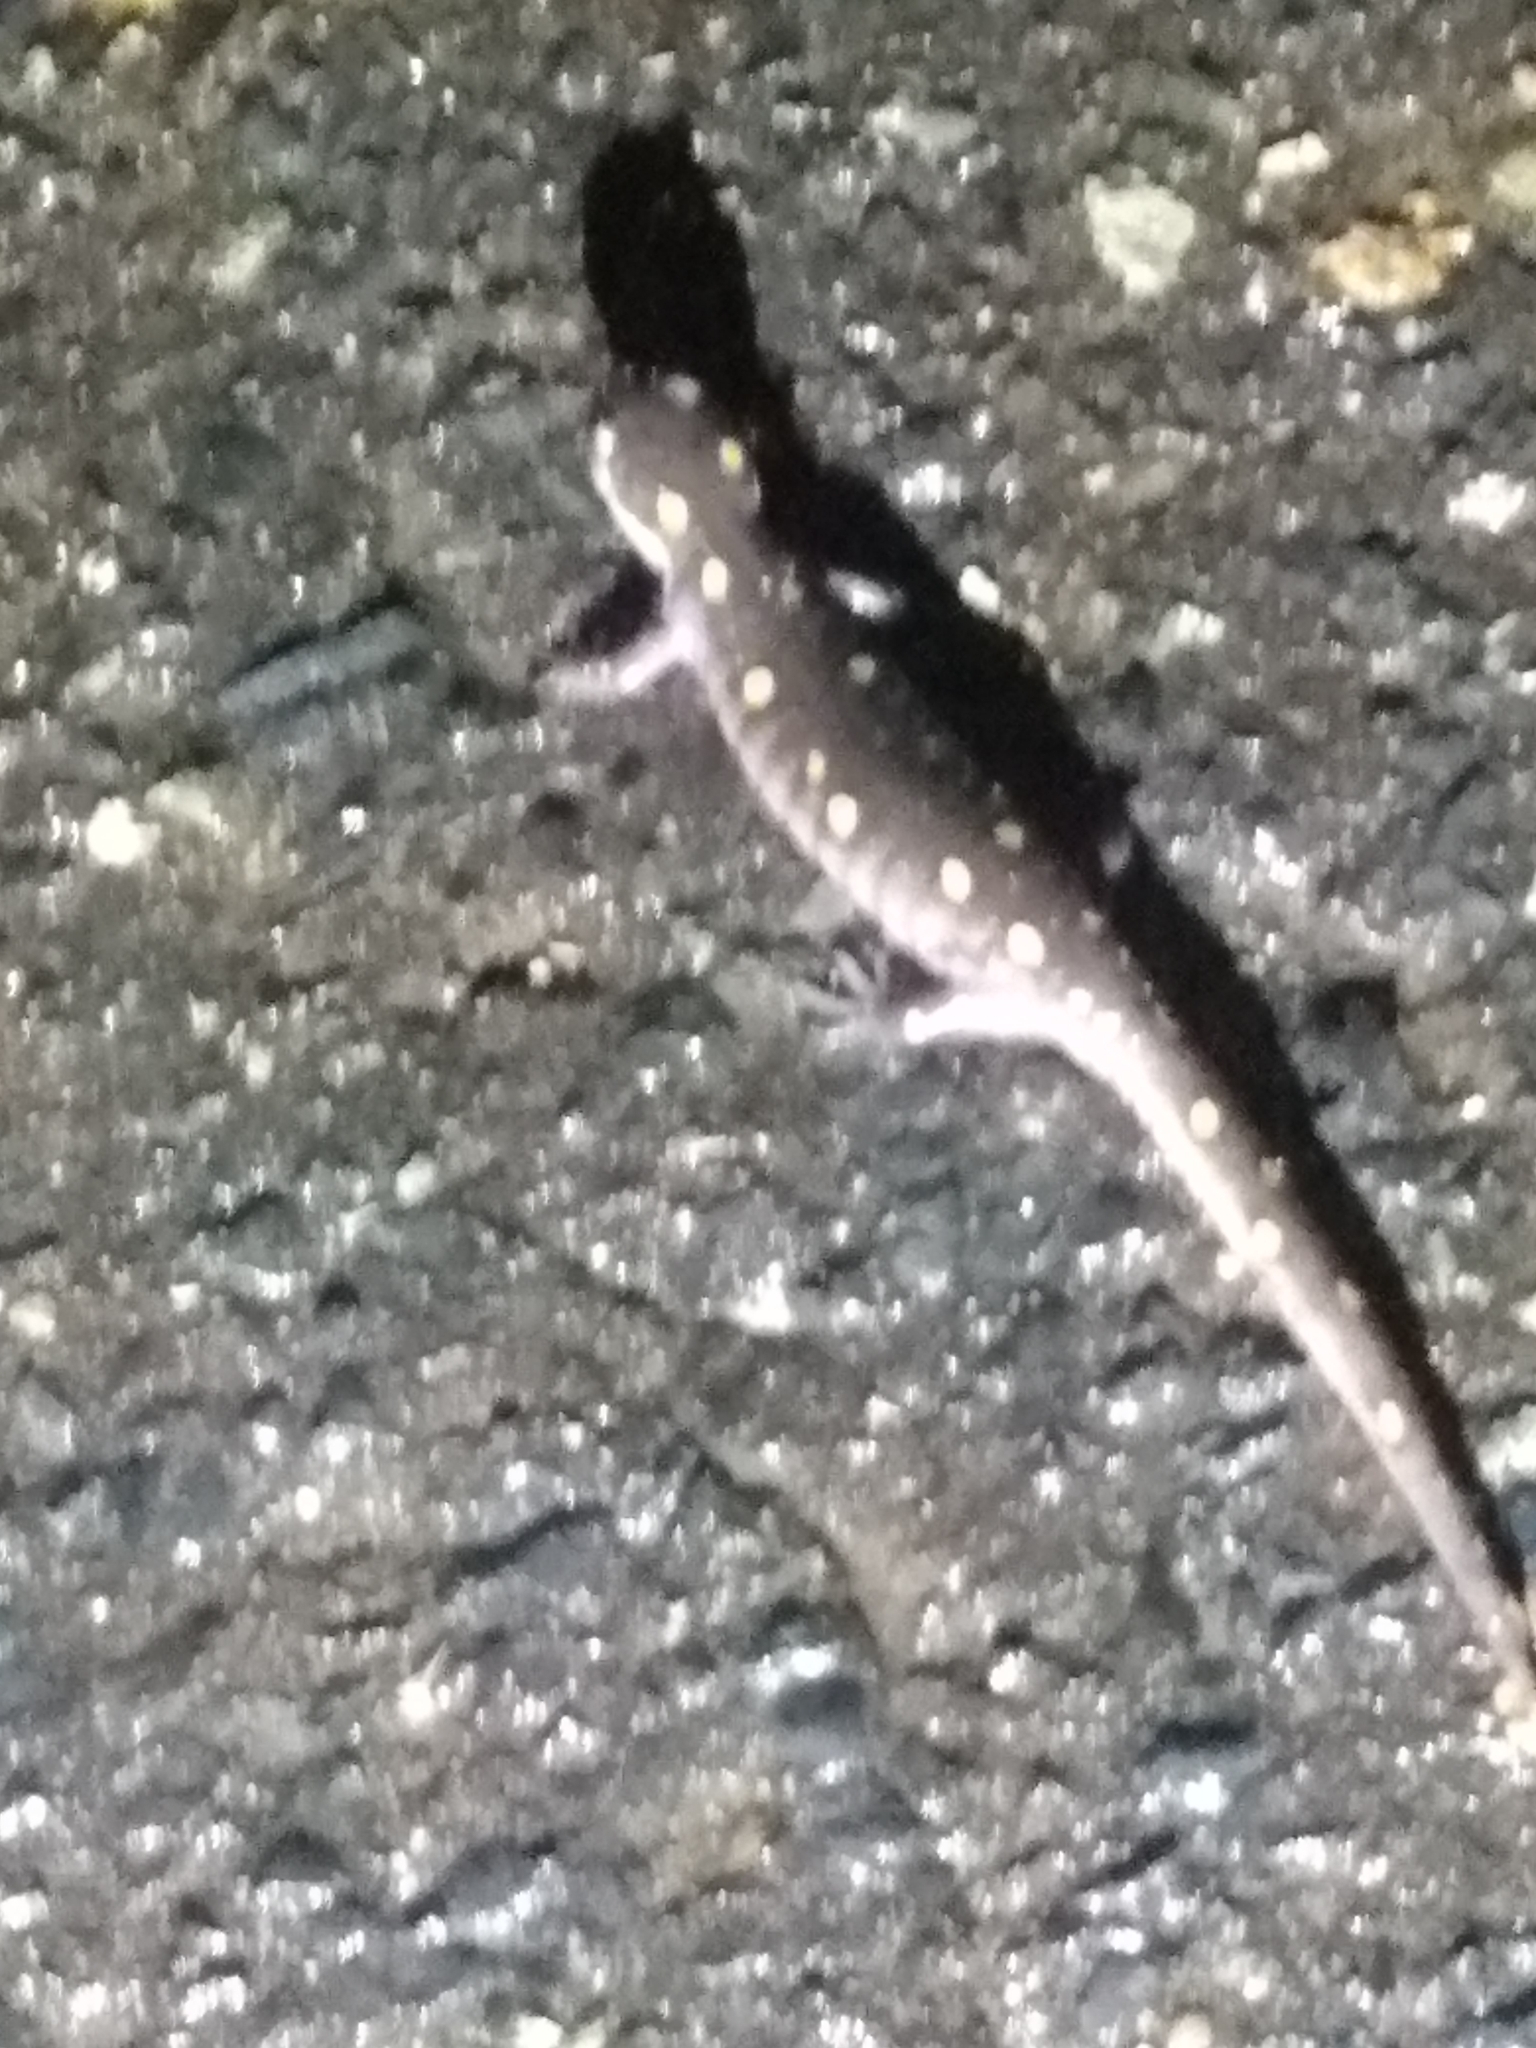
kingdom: Animalia
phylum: Chordata
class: Amphibia
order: Caudata
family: Ambystomatidae
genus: Ambystoma
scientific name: Ambystoma maculatum
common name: Spotted salamander
